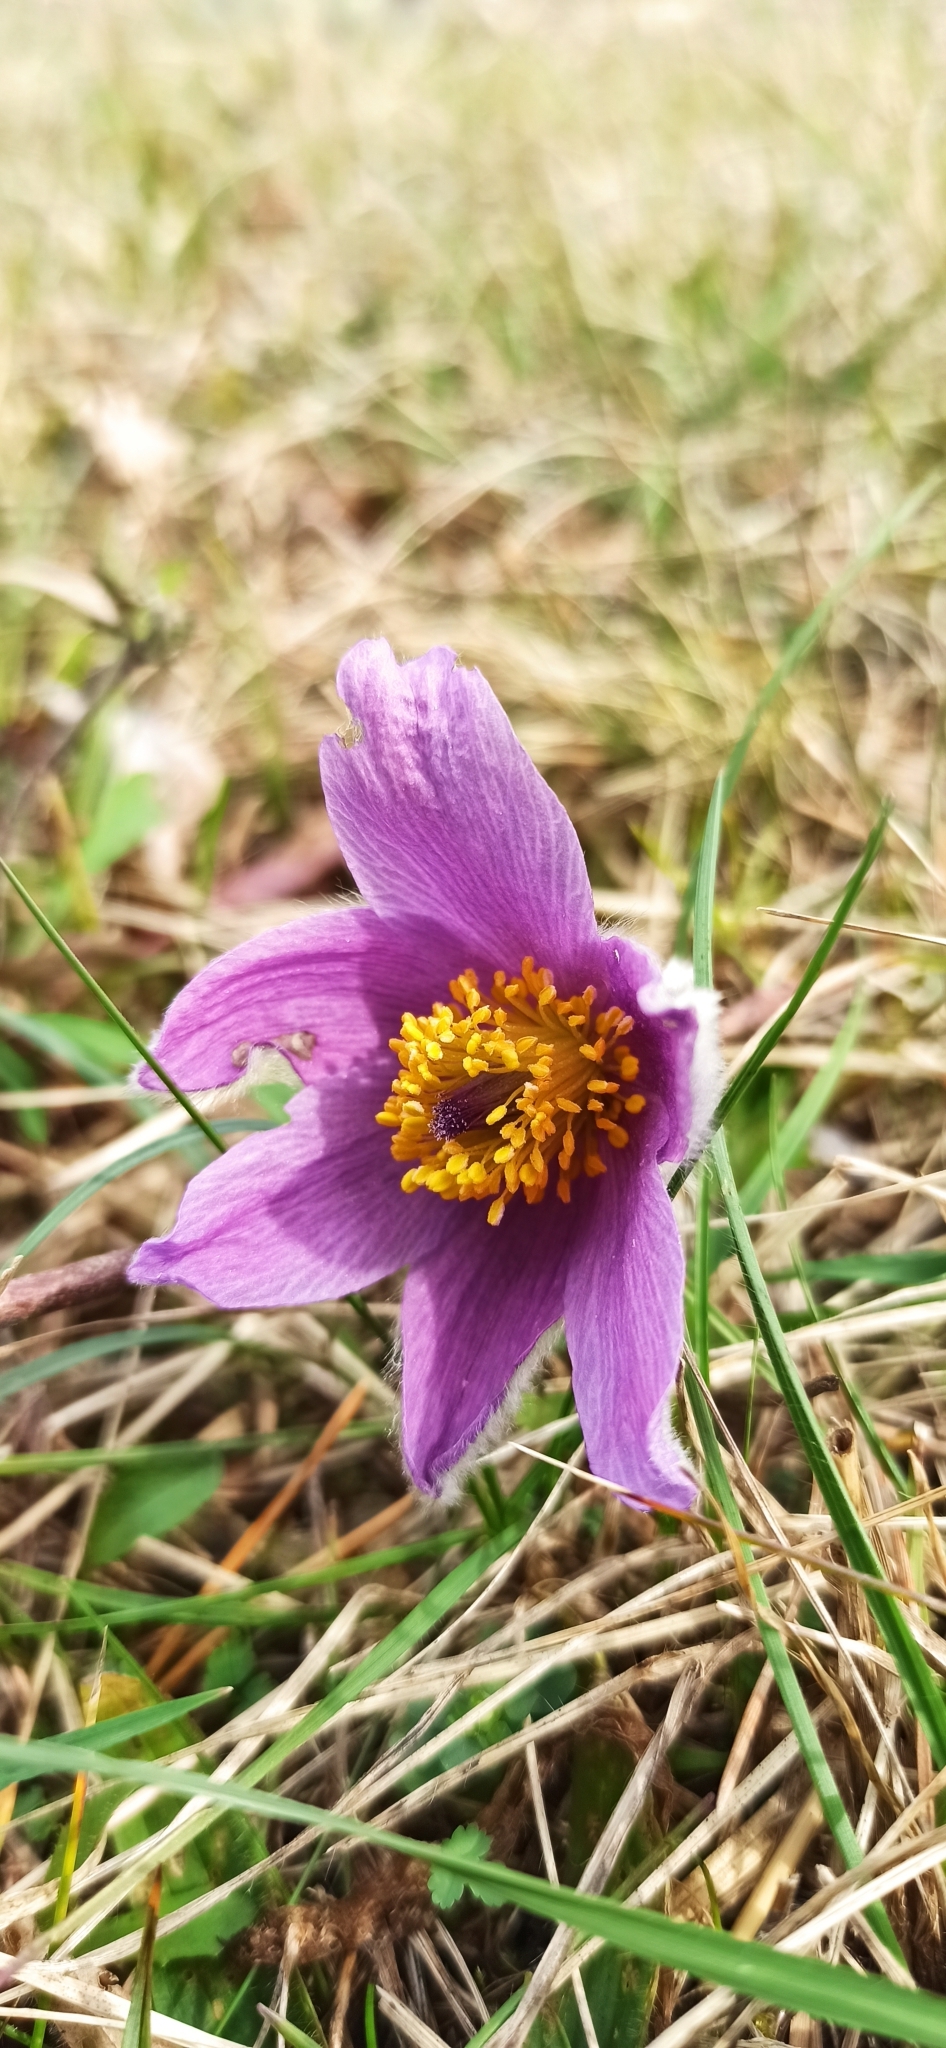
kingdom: Plantae
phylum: Tracheophyta
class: Magnoliopsida
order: Ranunculales
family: Ranunculaceae
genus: Pulsatilla
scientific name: Pulsatilla vulgaris
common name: Pasqueflower
